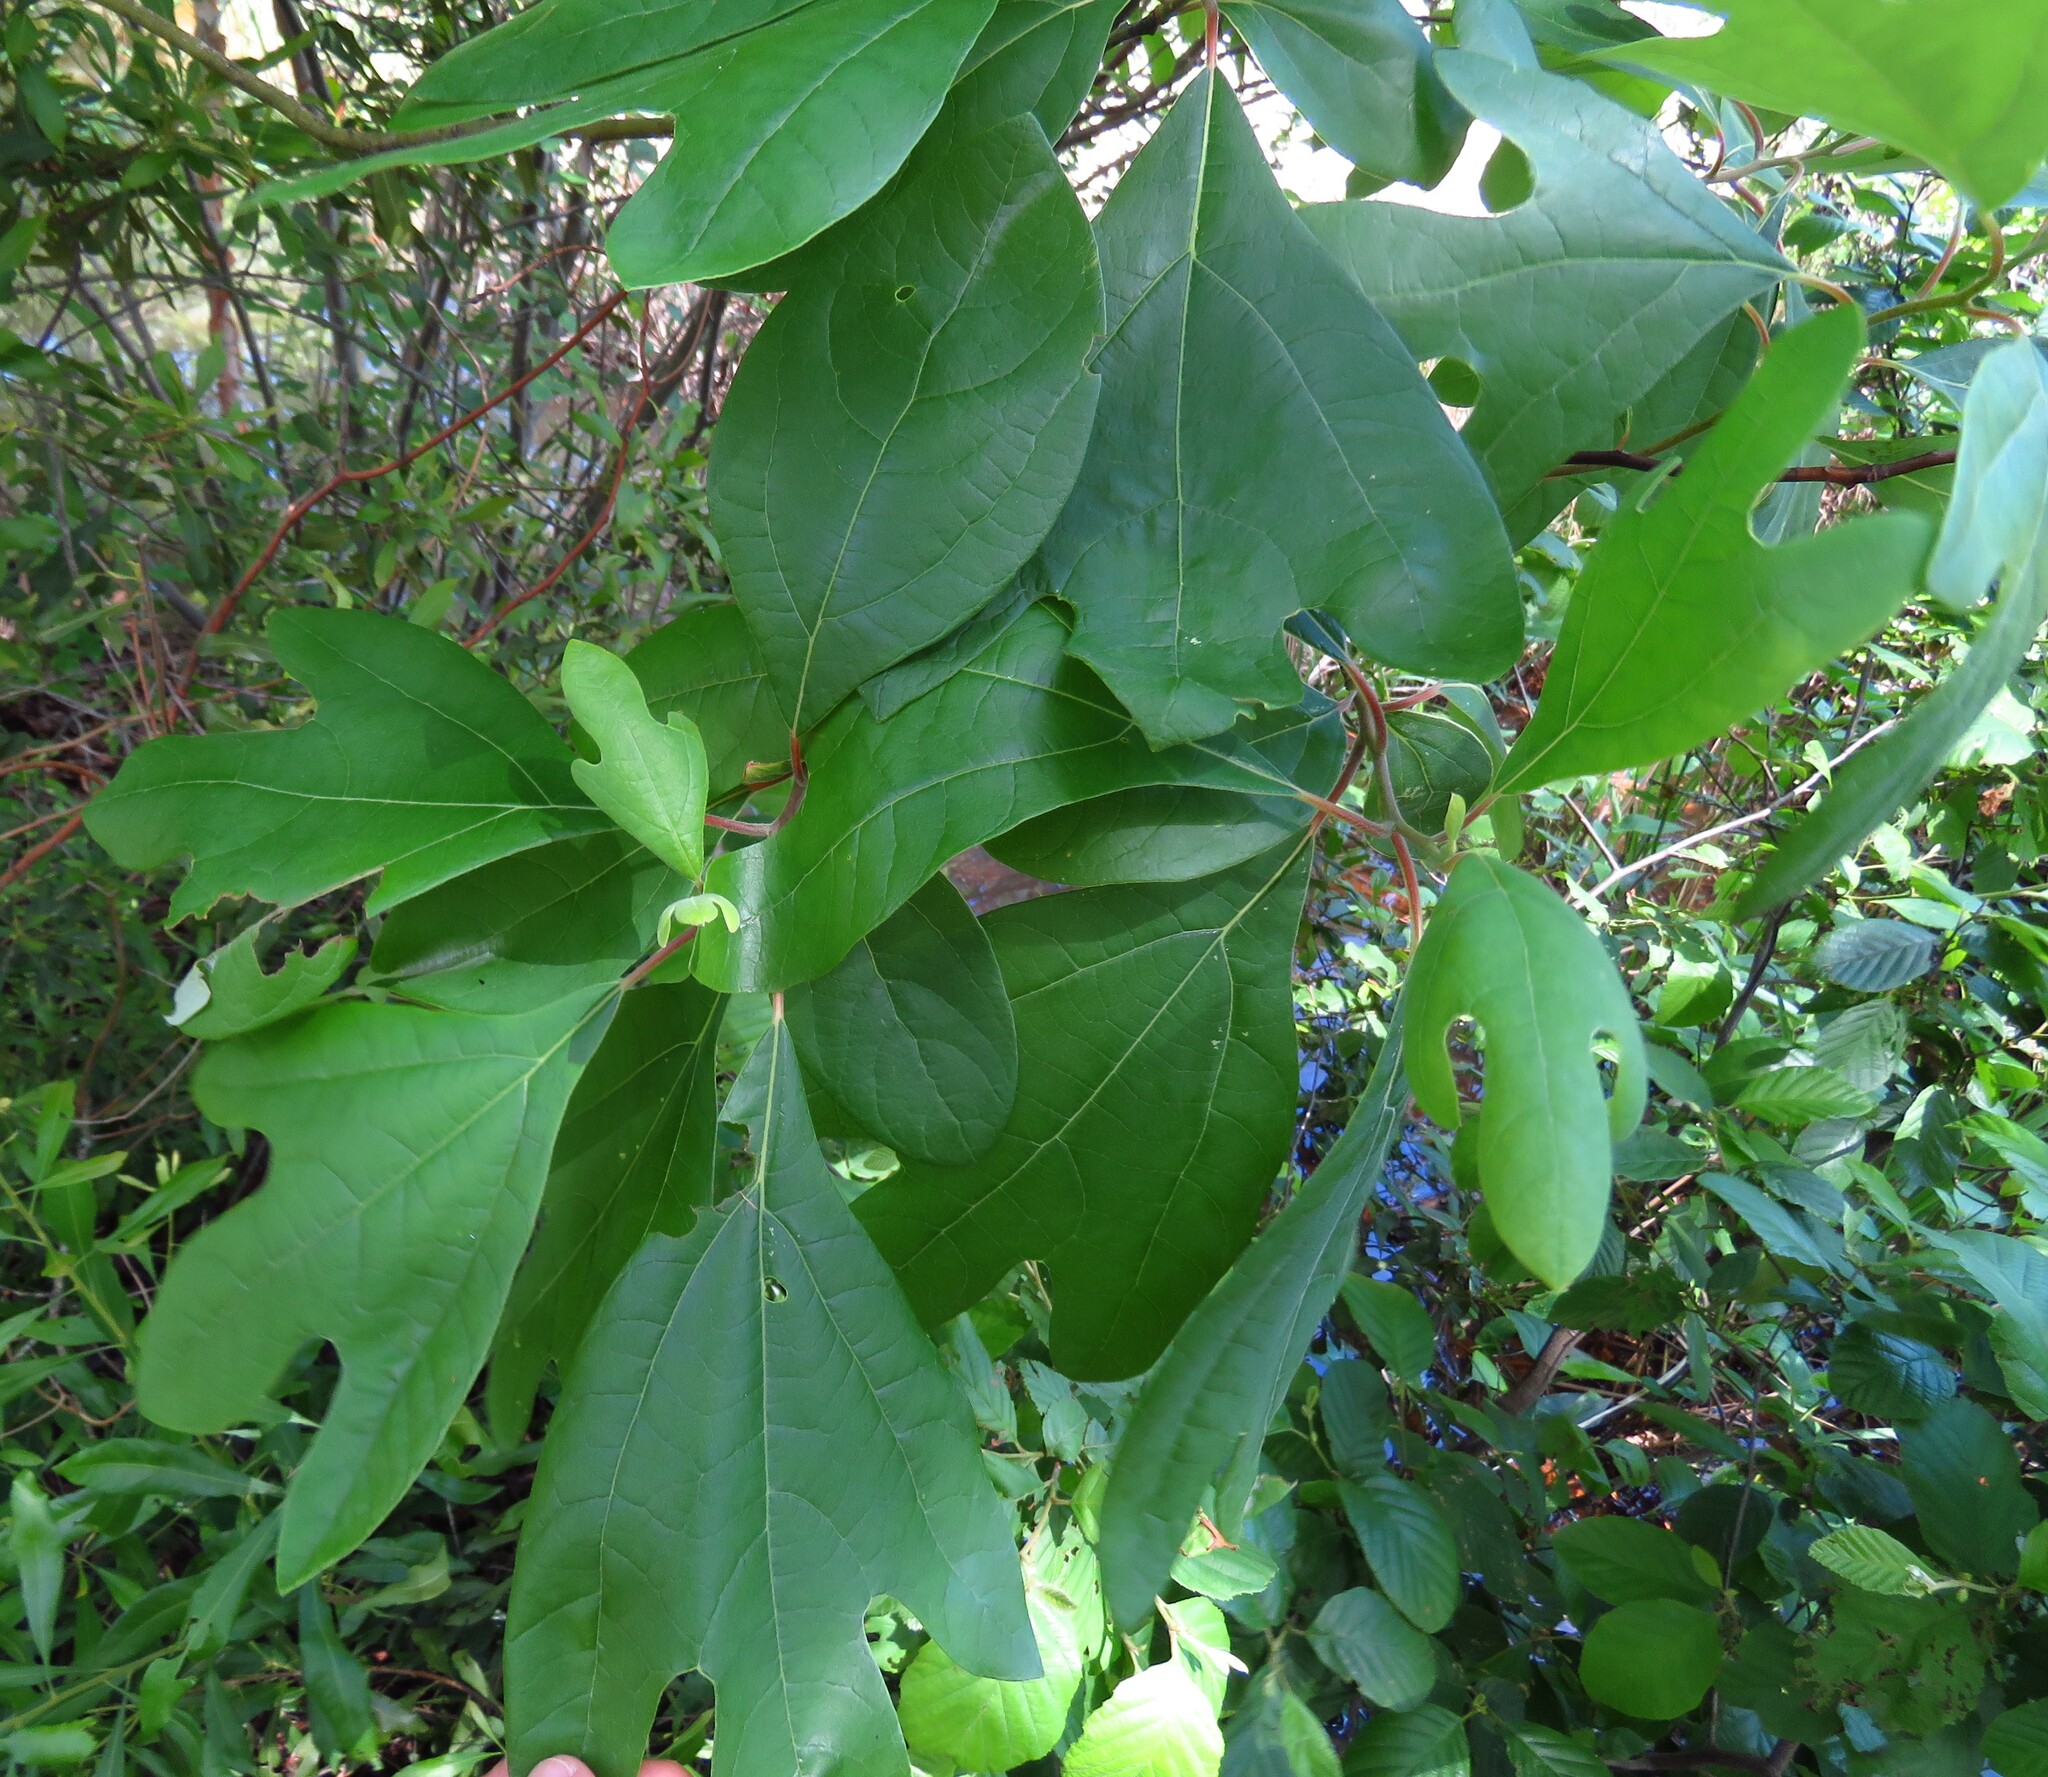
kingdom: Plantae
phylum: Tracheophyta
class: Magnoliopsida
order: Laurales
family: Lauraceae
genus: Sassafras
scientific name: Sassafras albidum
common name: Sassafras
